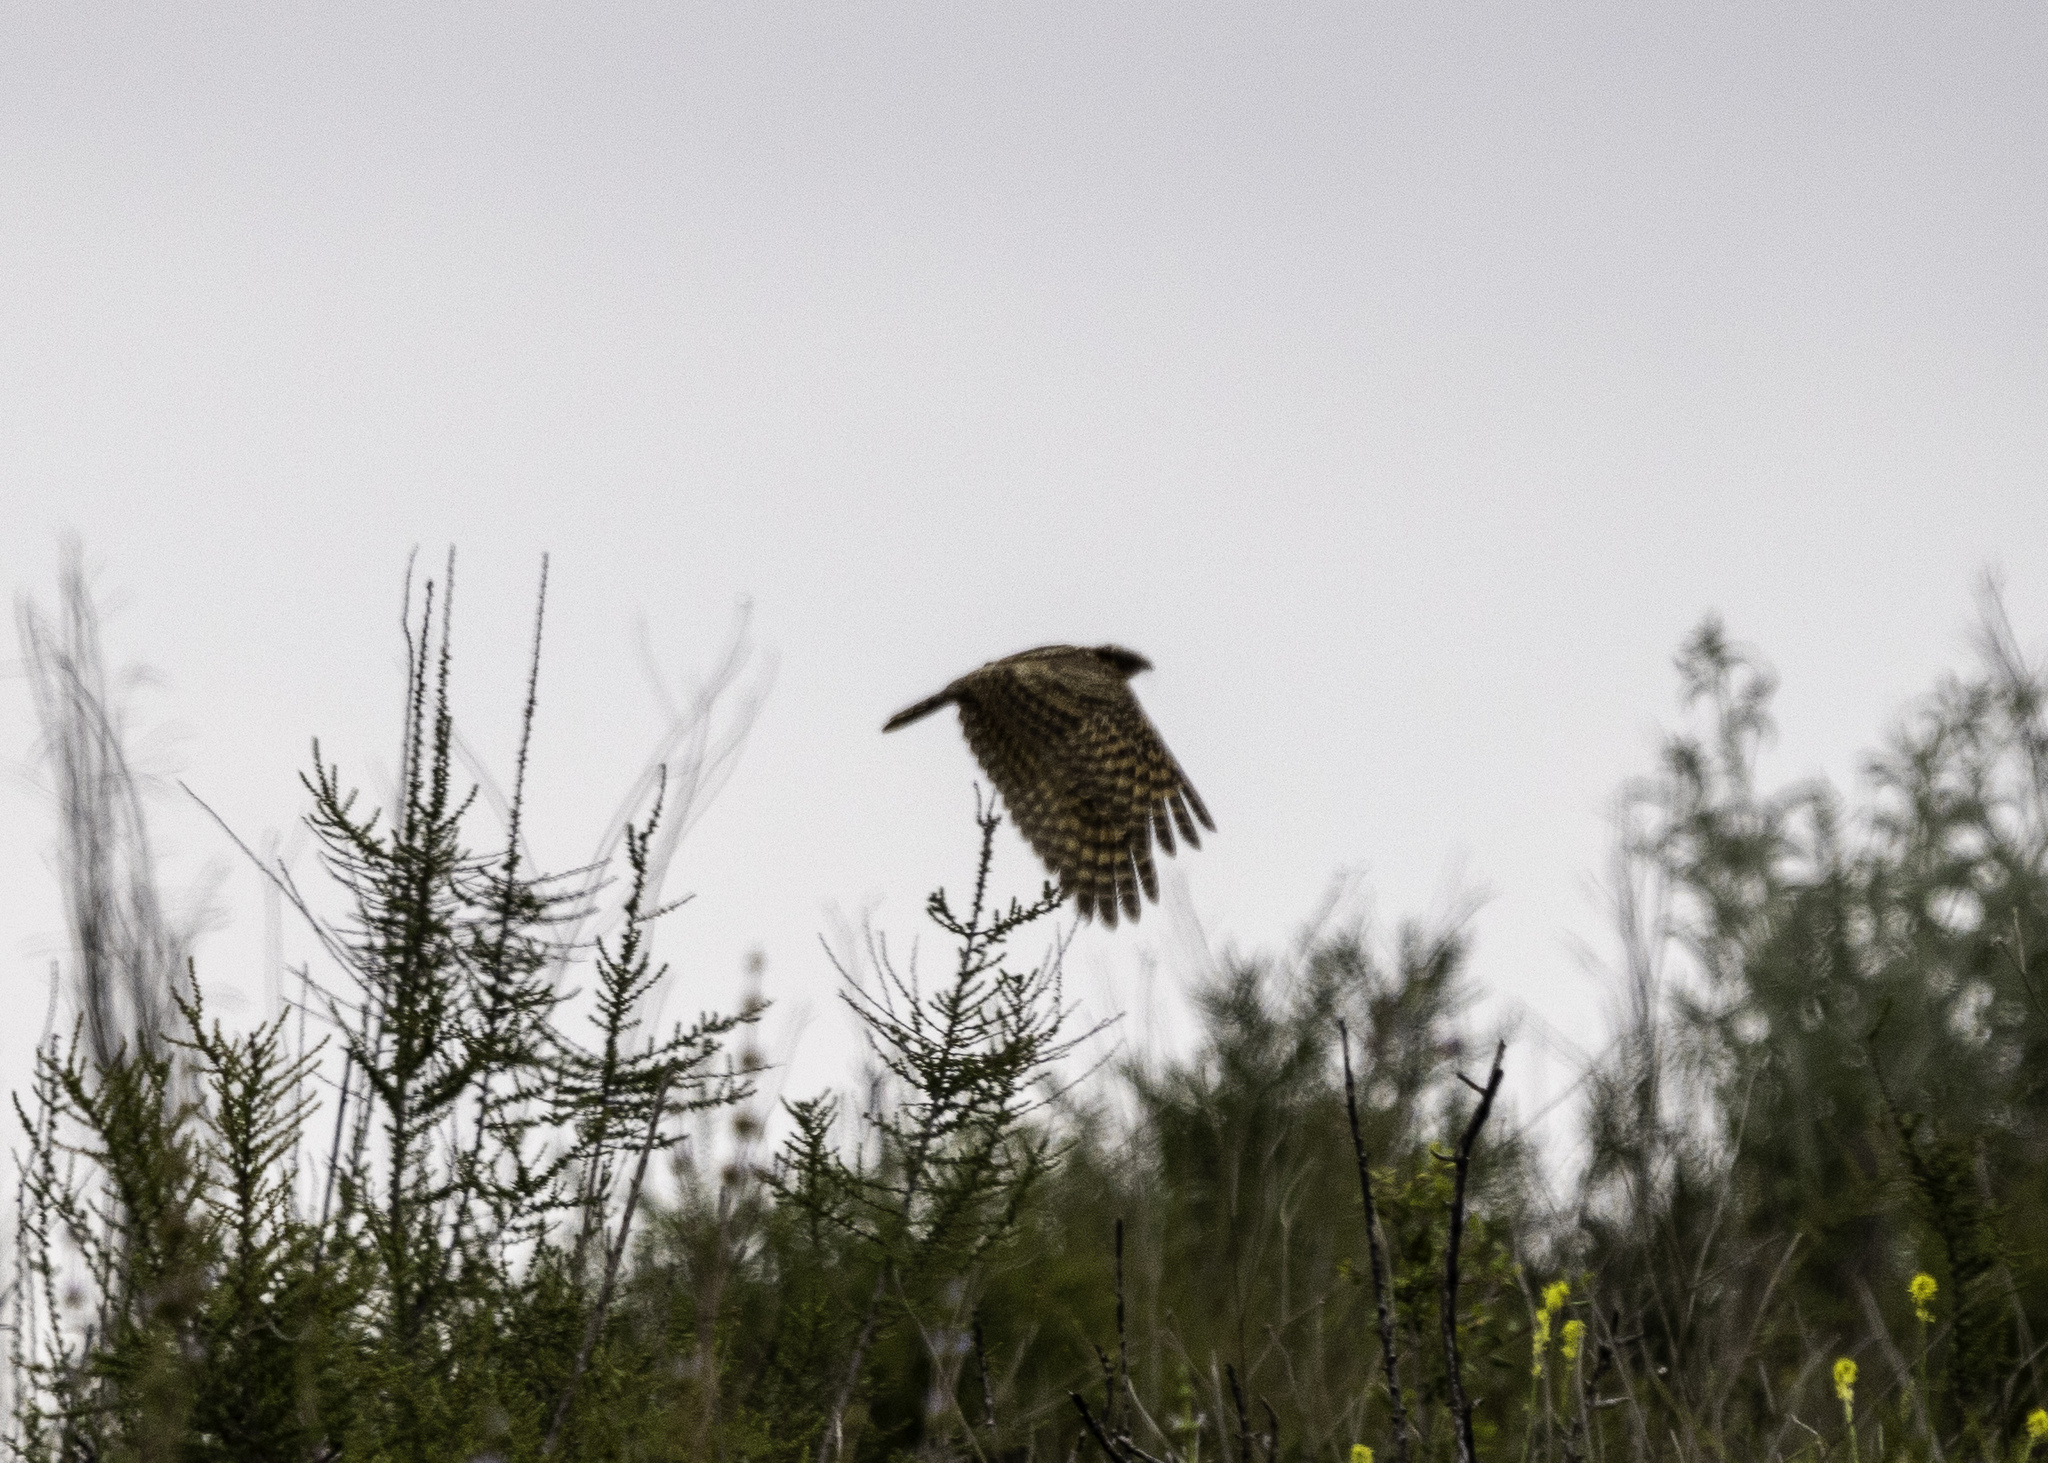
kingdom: Animalia
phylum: Chordata
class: Aves
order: Caprimulgiformes
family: Caprimulgidae
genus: Phalaenoptilus
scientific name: Phalaenoptilus nuttallii
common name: Common poorwill
